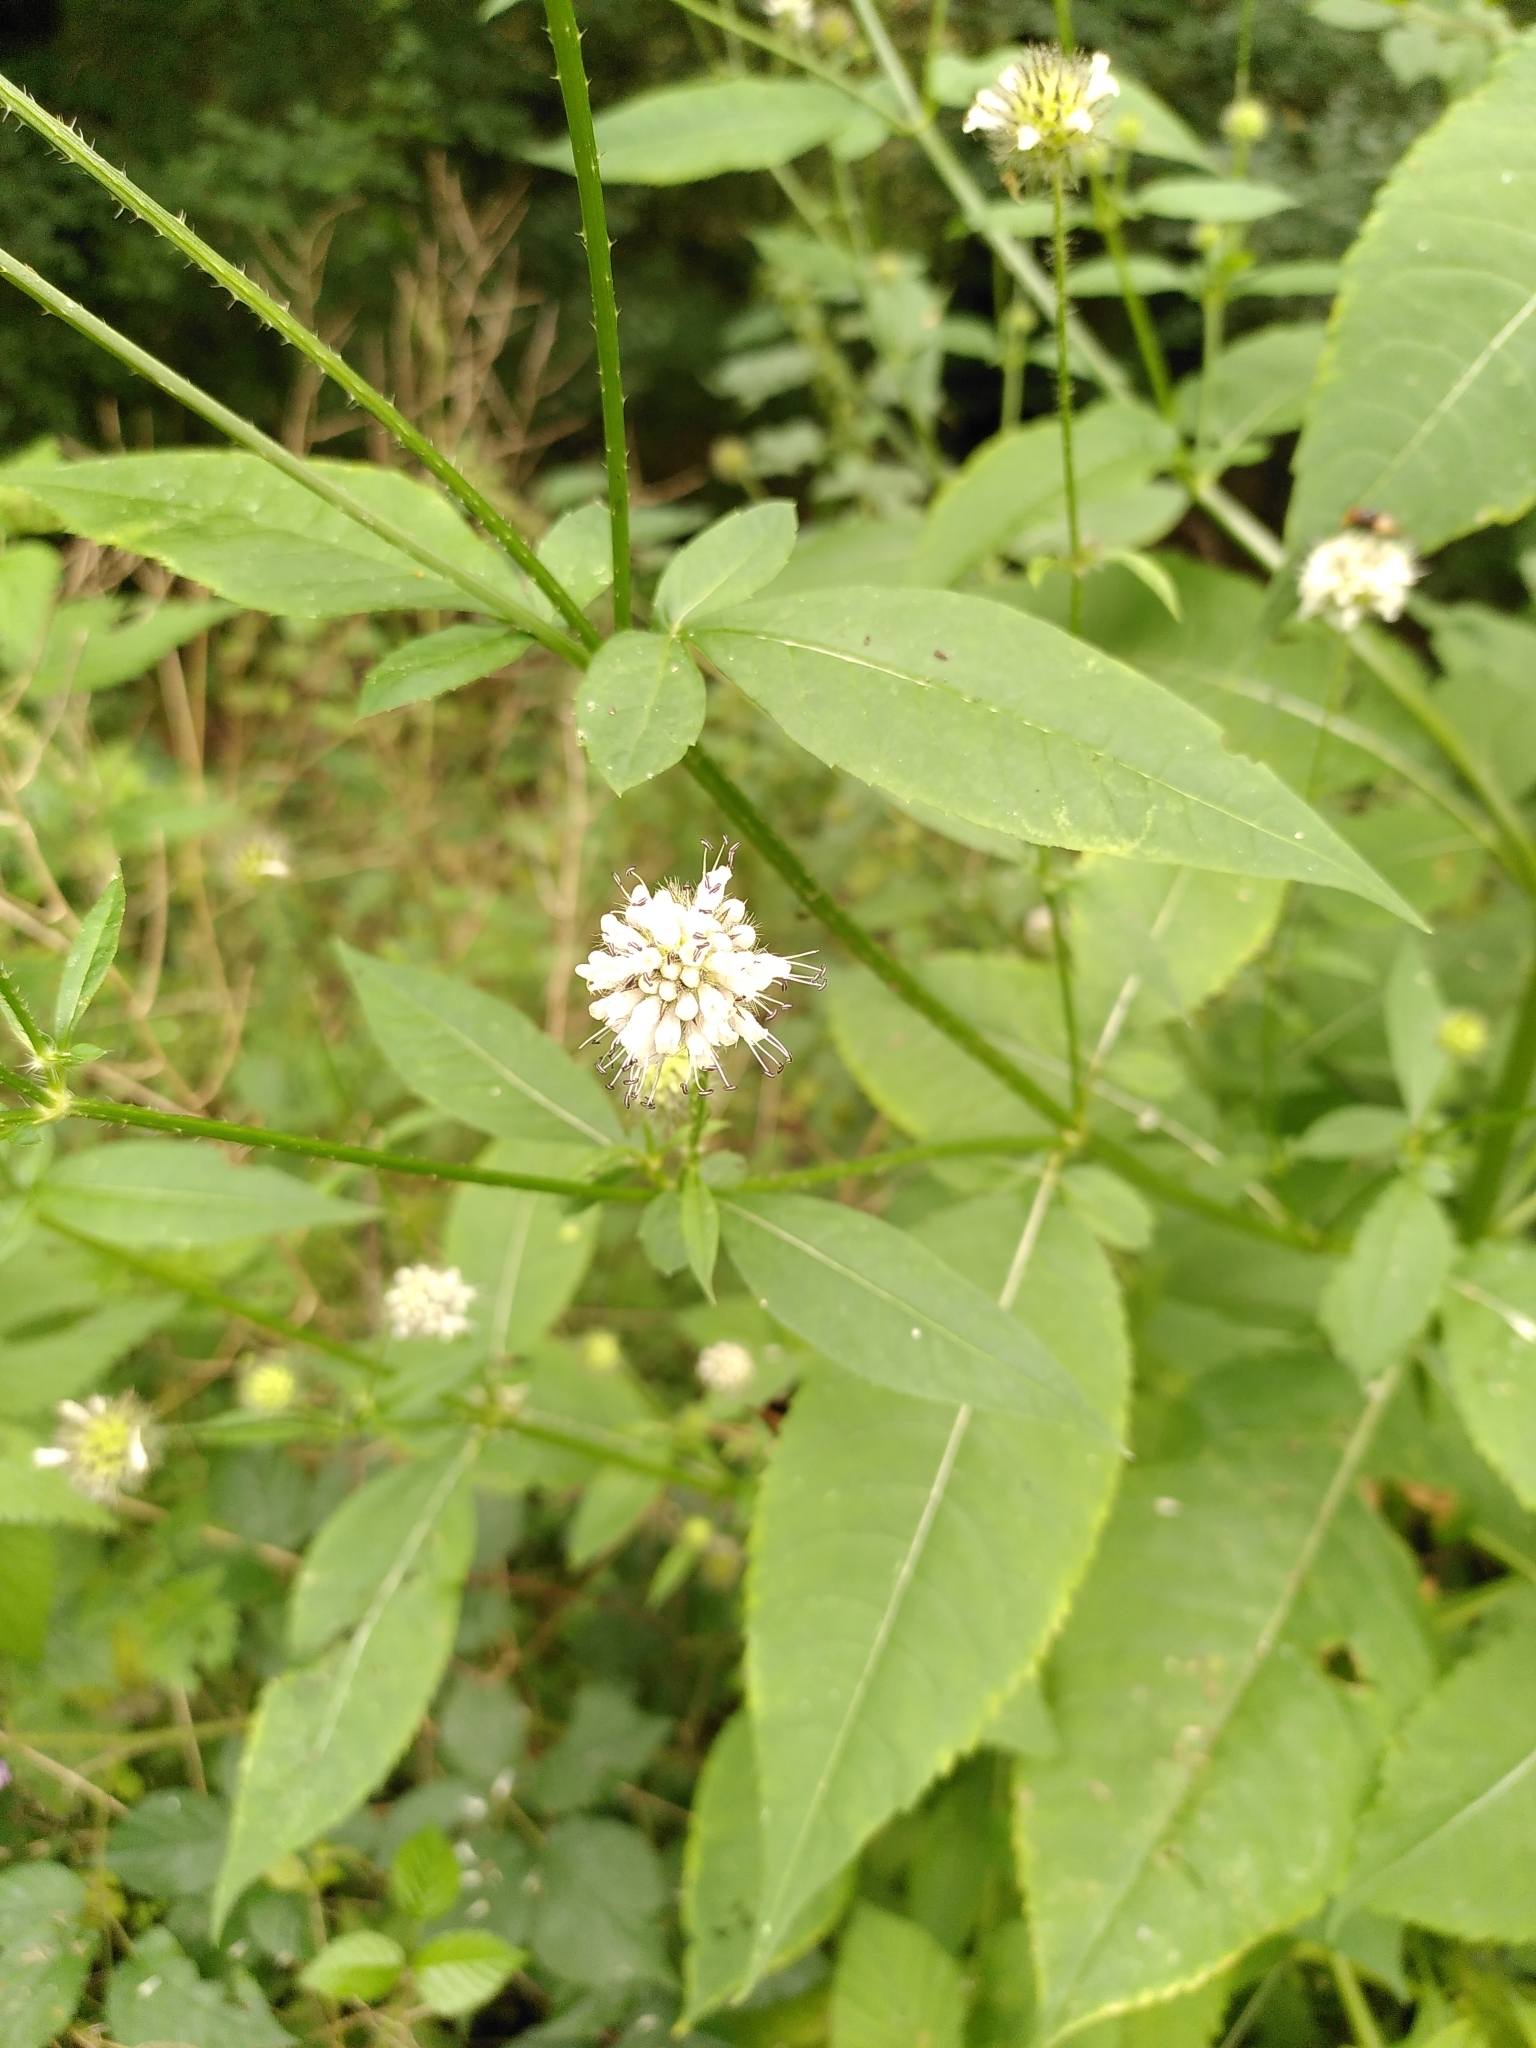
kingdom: Plantae
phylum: Tracheophyta
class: Magnoliopsida
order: Dipsacales
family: Caprifoliaceae
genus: Dipsacus
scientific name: Dipsacus pilosus
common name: Small teasel
